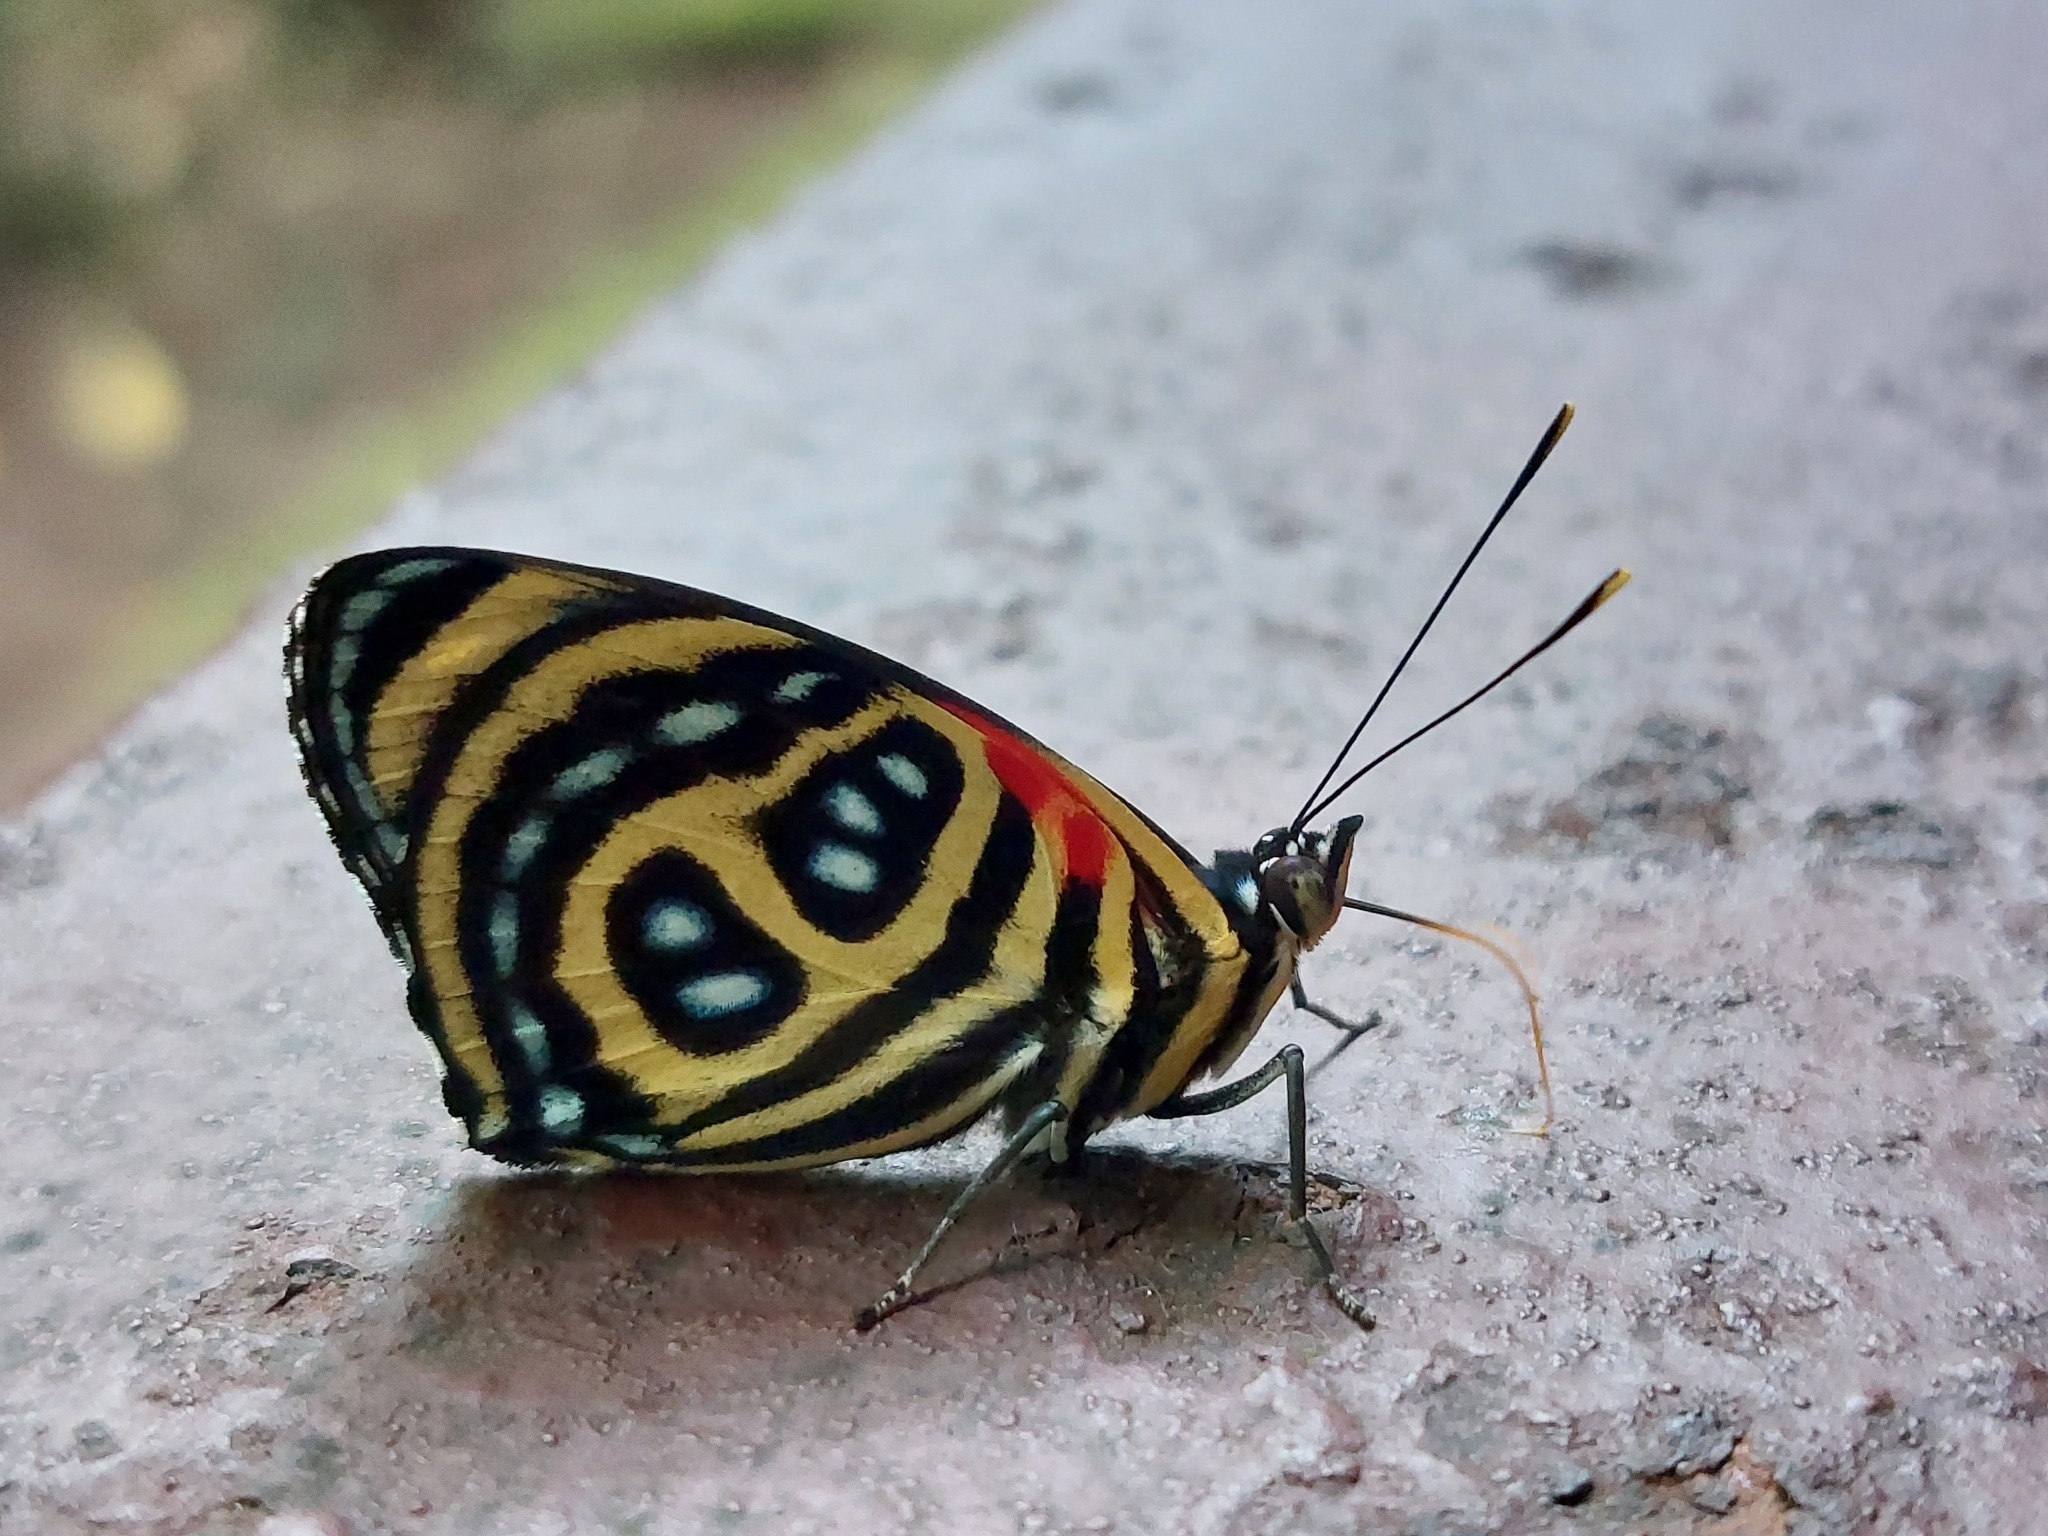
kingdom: Animalia
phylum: Arthropoda
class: Insecta
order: Lepidoptera
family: Nymphalidae
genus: Catagramma
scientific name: Catagramma pygas
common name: Godart's numberwing
